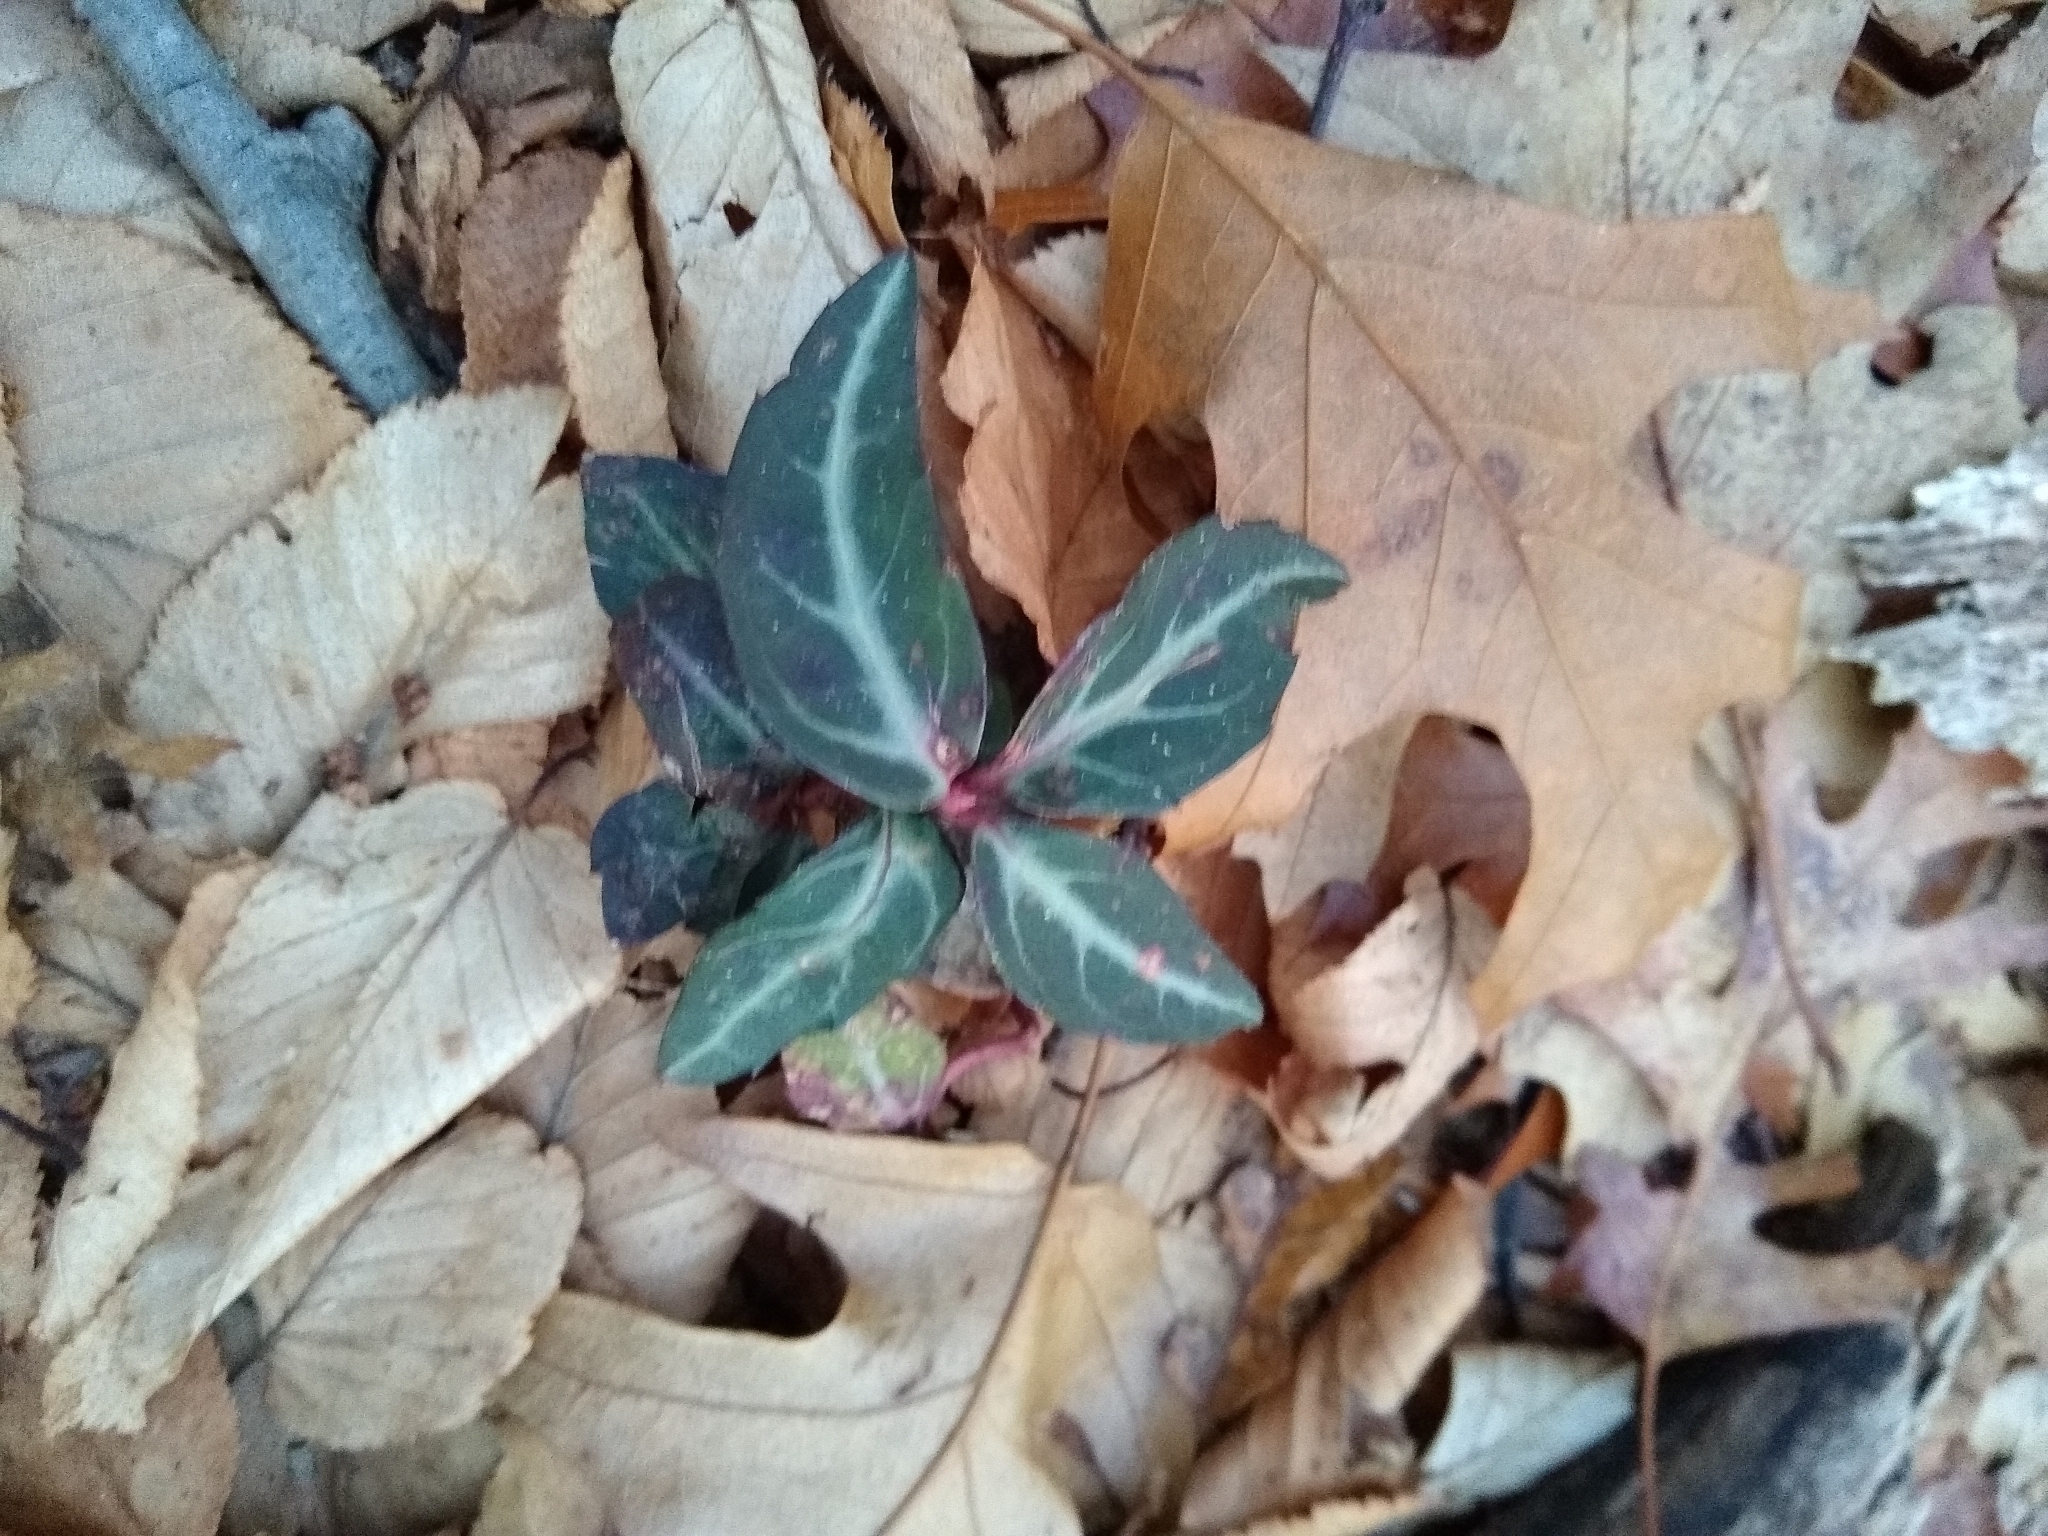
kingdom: Plantae
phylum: Tracheophyta
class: Magnoliopsida
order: Ericales
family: Ericaceae
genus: Chimaphila
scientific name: Chimaphila maculata
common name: Spotted pipsissewa
